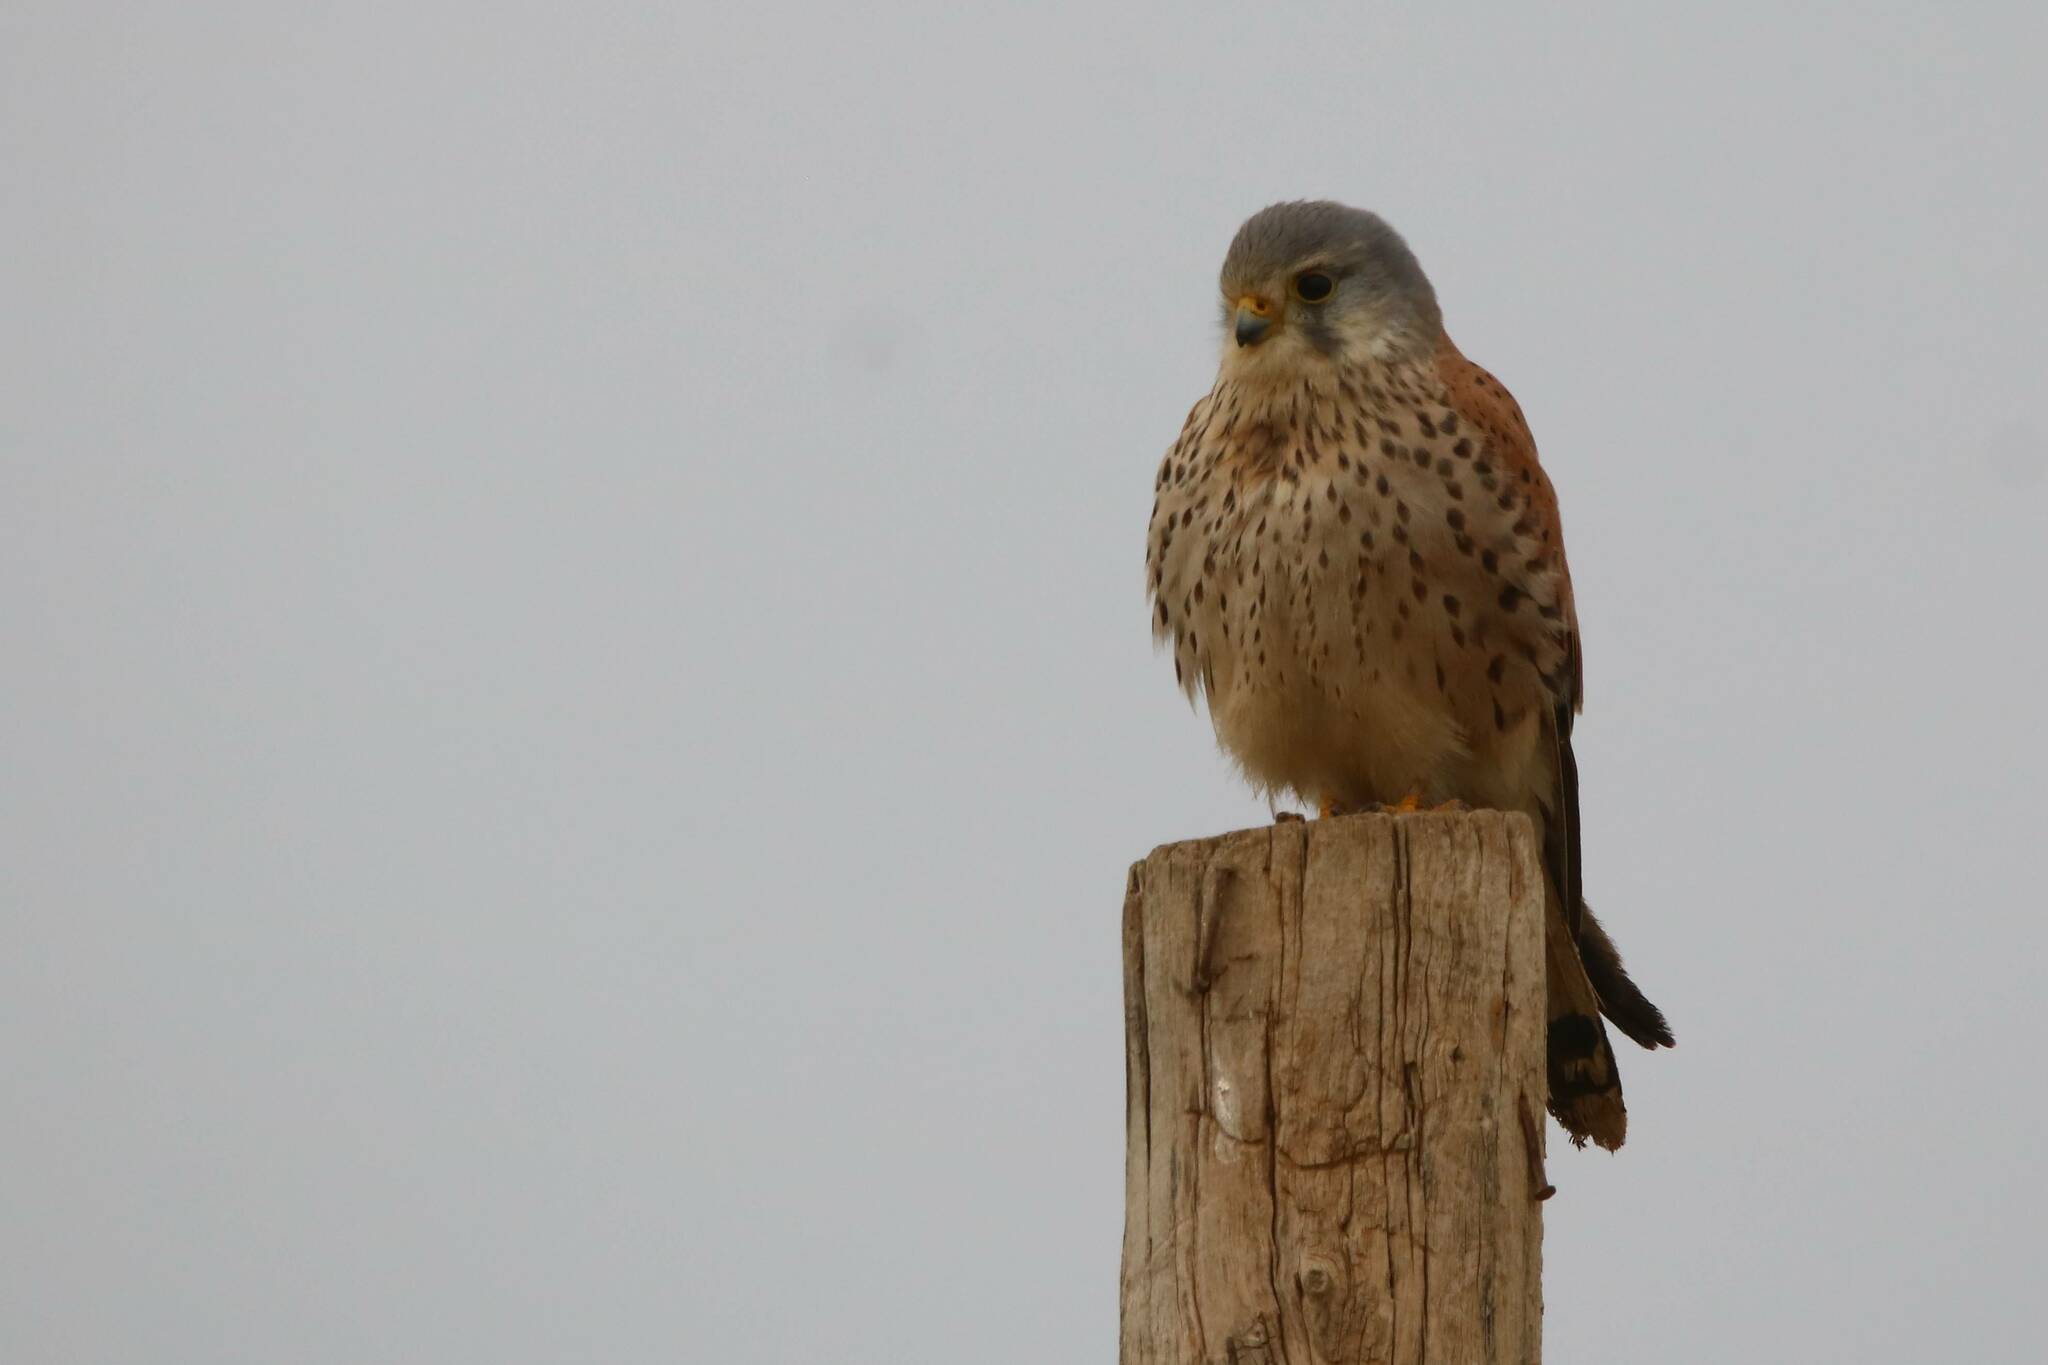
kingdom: Animalia
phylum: Chordata
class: Aves
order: Falconiformes
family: Falconidae
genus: Falco
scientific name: Falco tinnunculus
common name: Common kestrel
